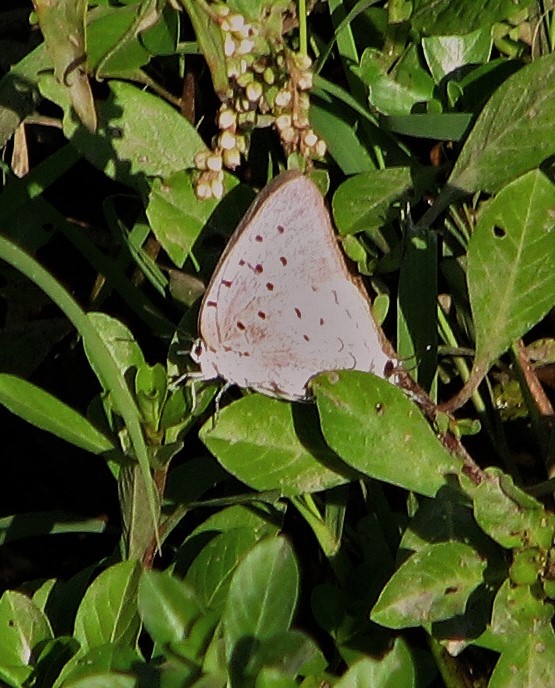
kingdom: Animalia
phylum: Arthropoda
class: Insecta
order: Lepidoptera
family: Lycaenidae
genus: Pseudolycaena
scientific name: Pseudolycaena marsyas
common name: Marsyas hairstreak
